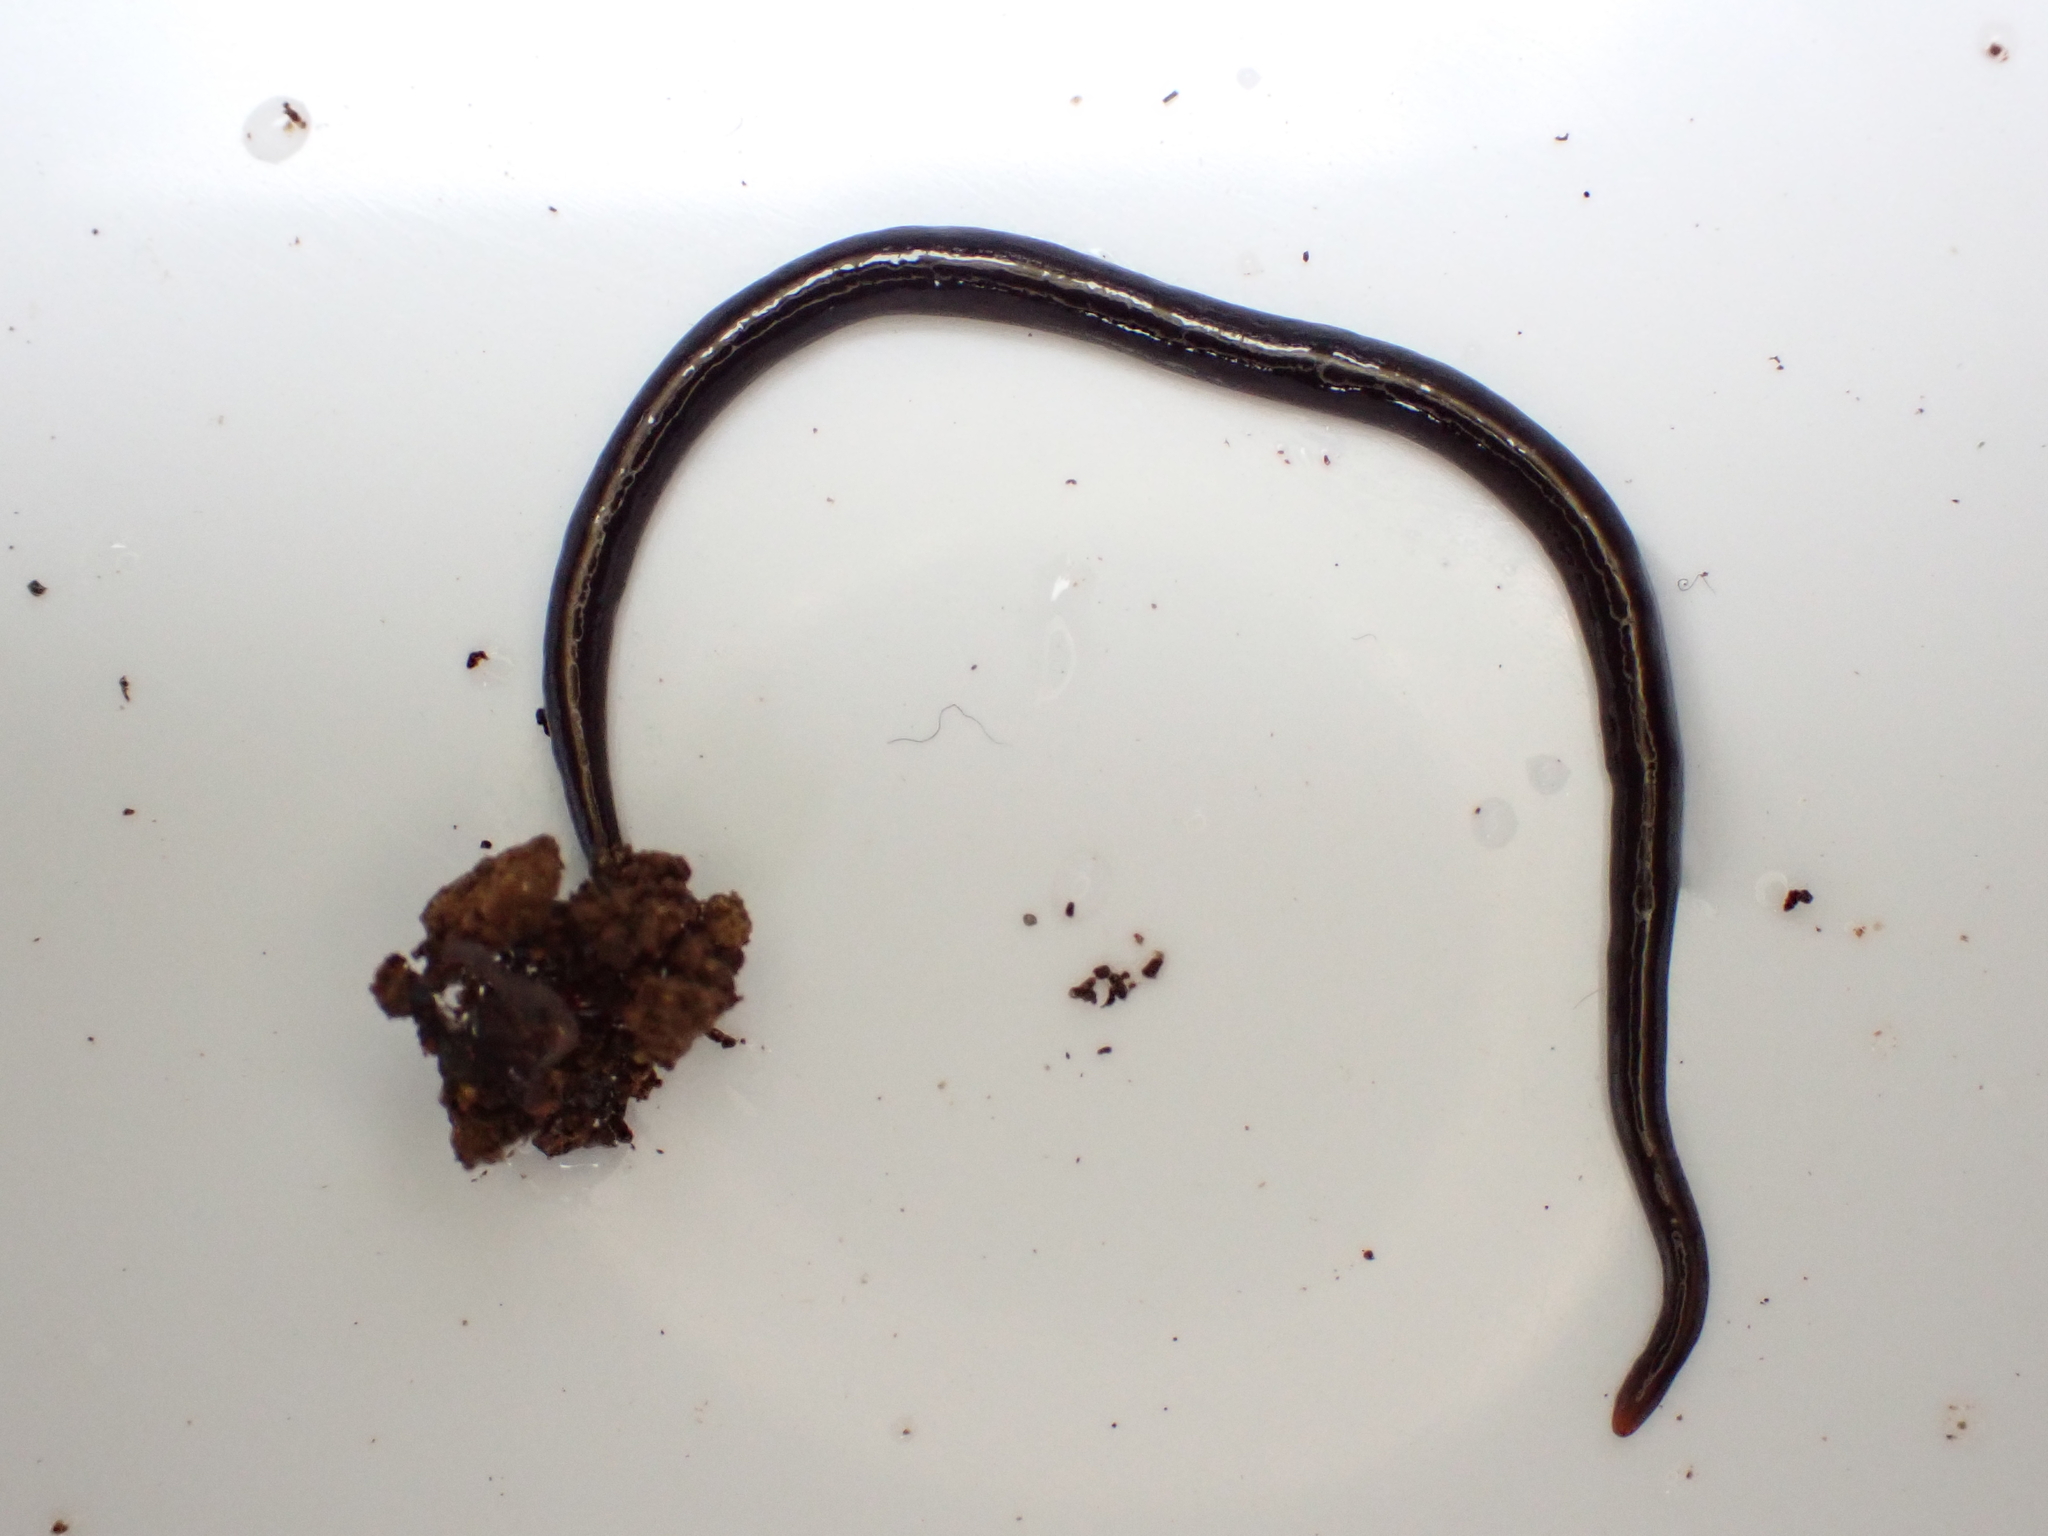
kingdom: Animalia
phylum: Platyhelminthes
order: Tricladida
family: Geoplanidae
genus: Caenoplana
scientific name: Caenoplana coerulea
